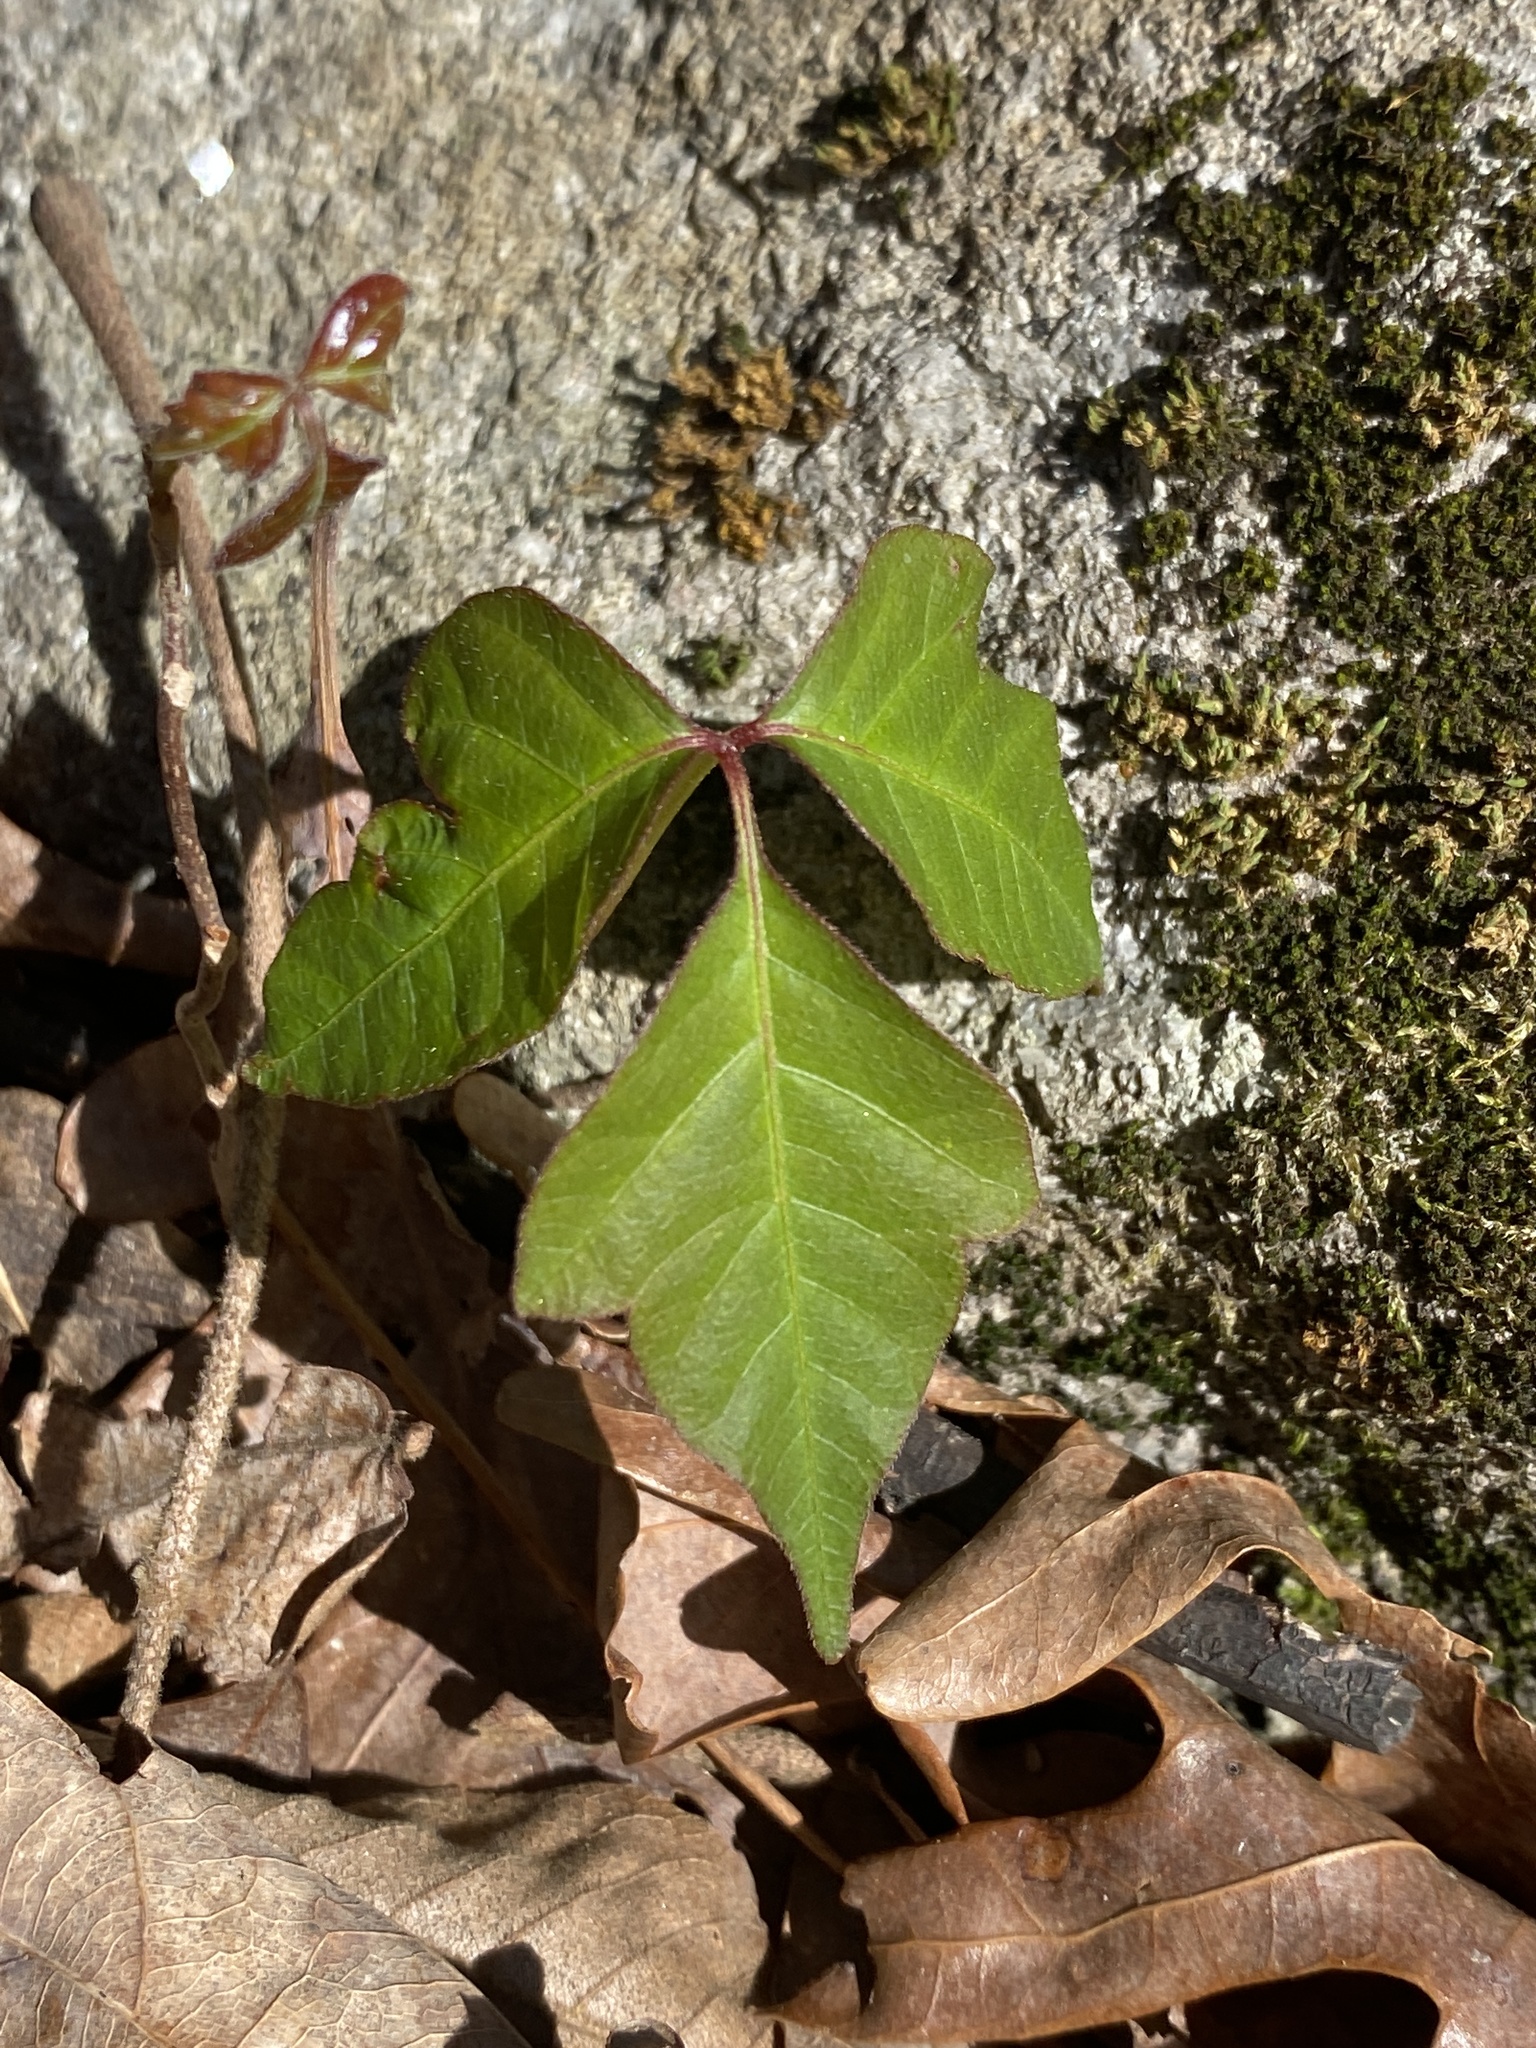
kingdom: Plantae
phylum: Tracheophyta
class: Magnoliopsida
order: Sapindales
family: Anacardiaceae
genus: Toxicodendron
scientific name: Toxicodendron radicans
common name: Poison ivy
